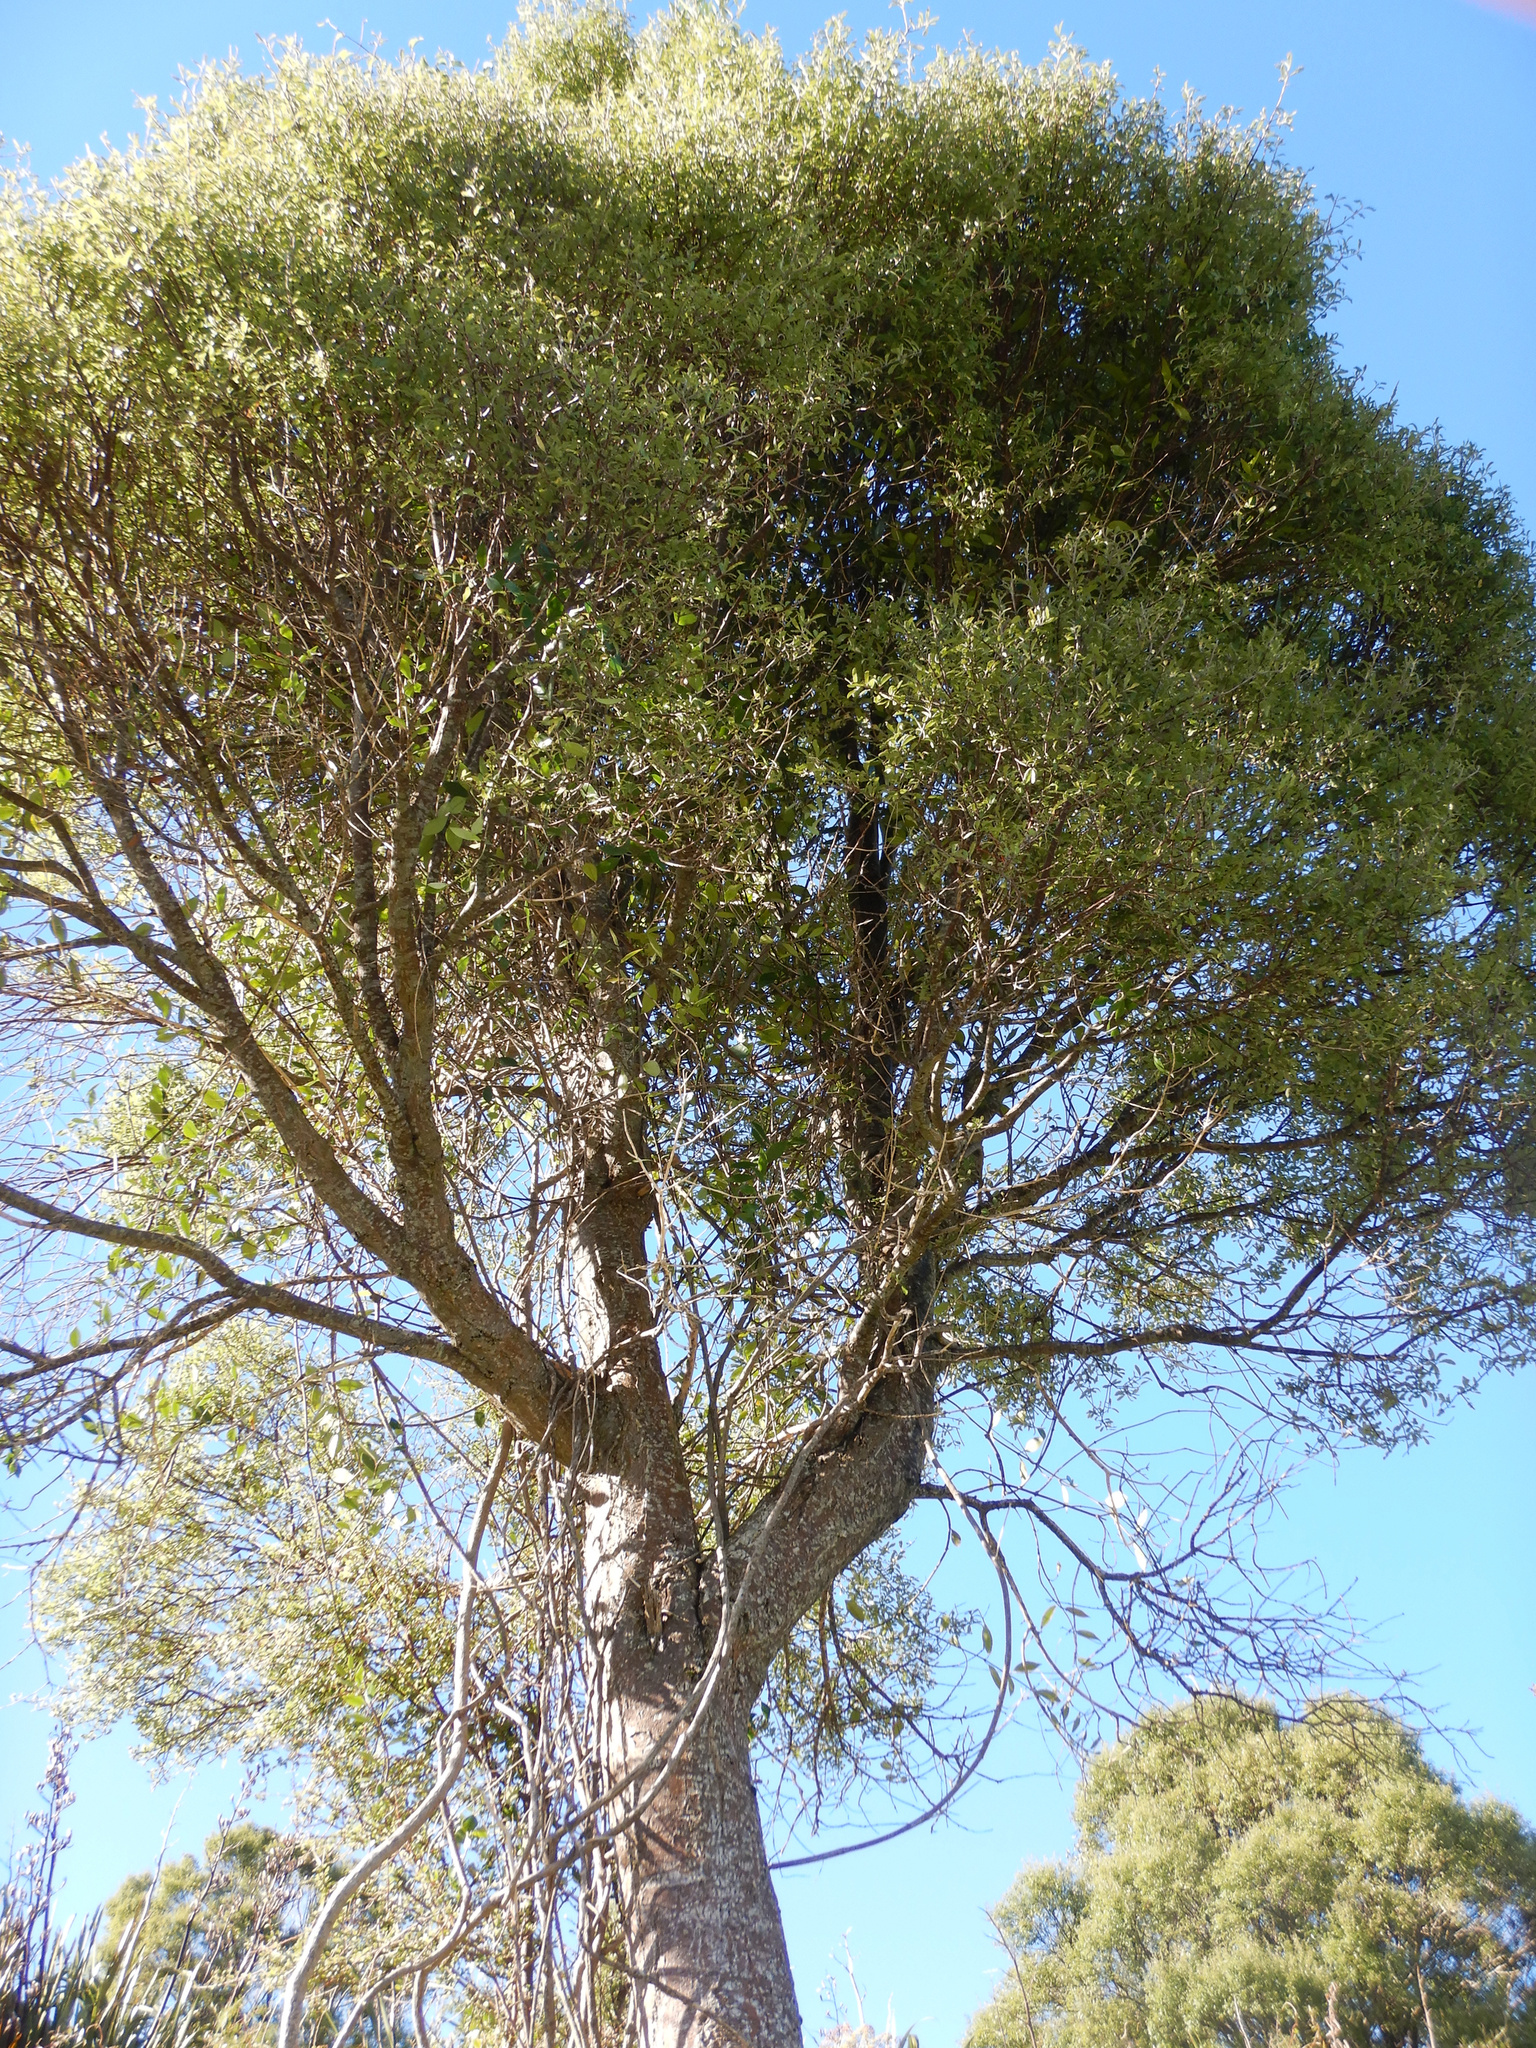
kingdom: Plantae
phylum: Tracheophyta
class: Magnoliopsida
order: Malvales
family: Malvaceae
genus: Hoheria
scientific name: Hoheria angustifolia
